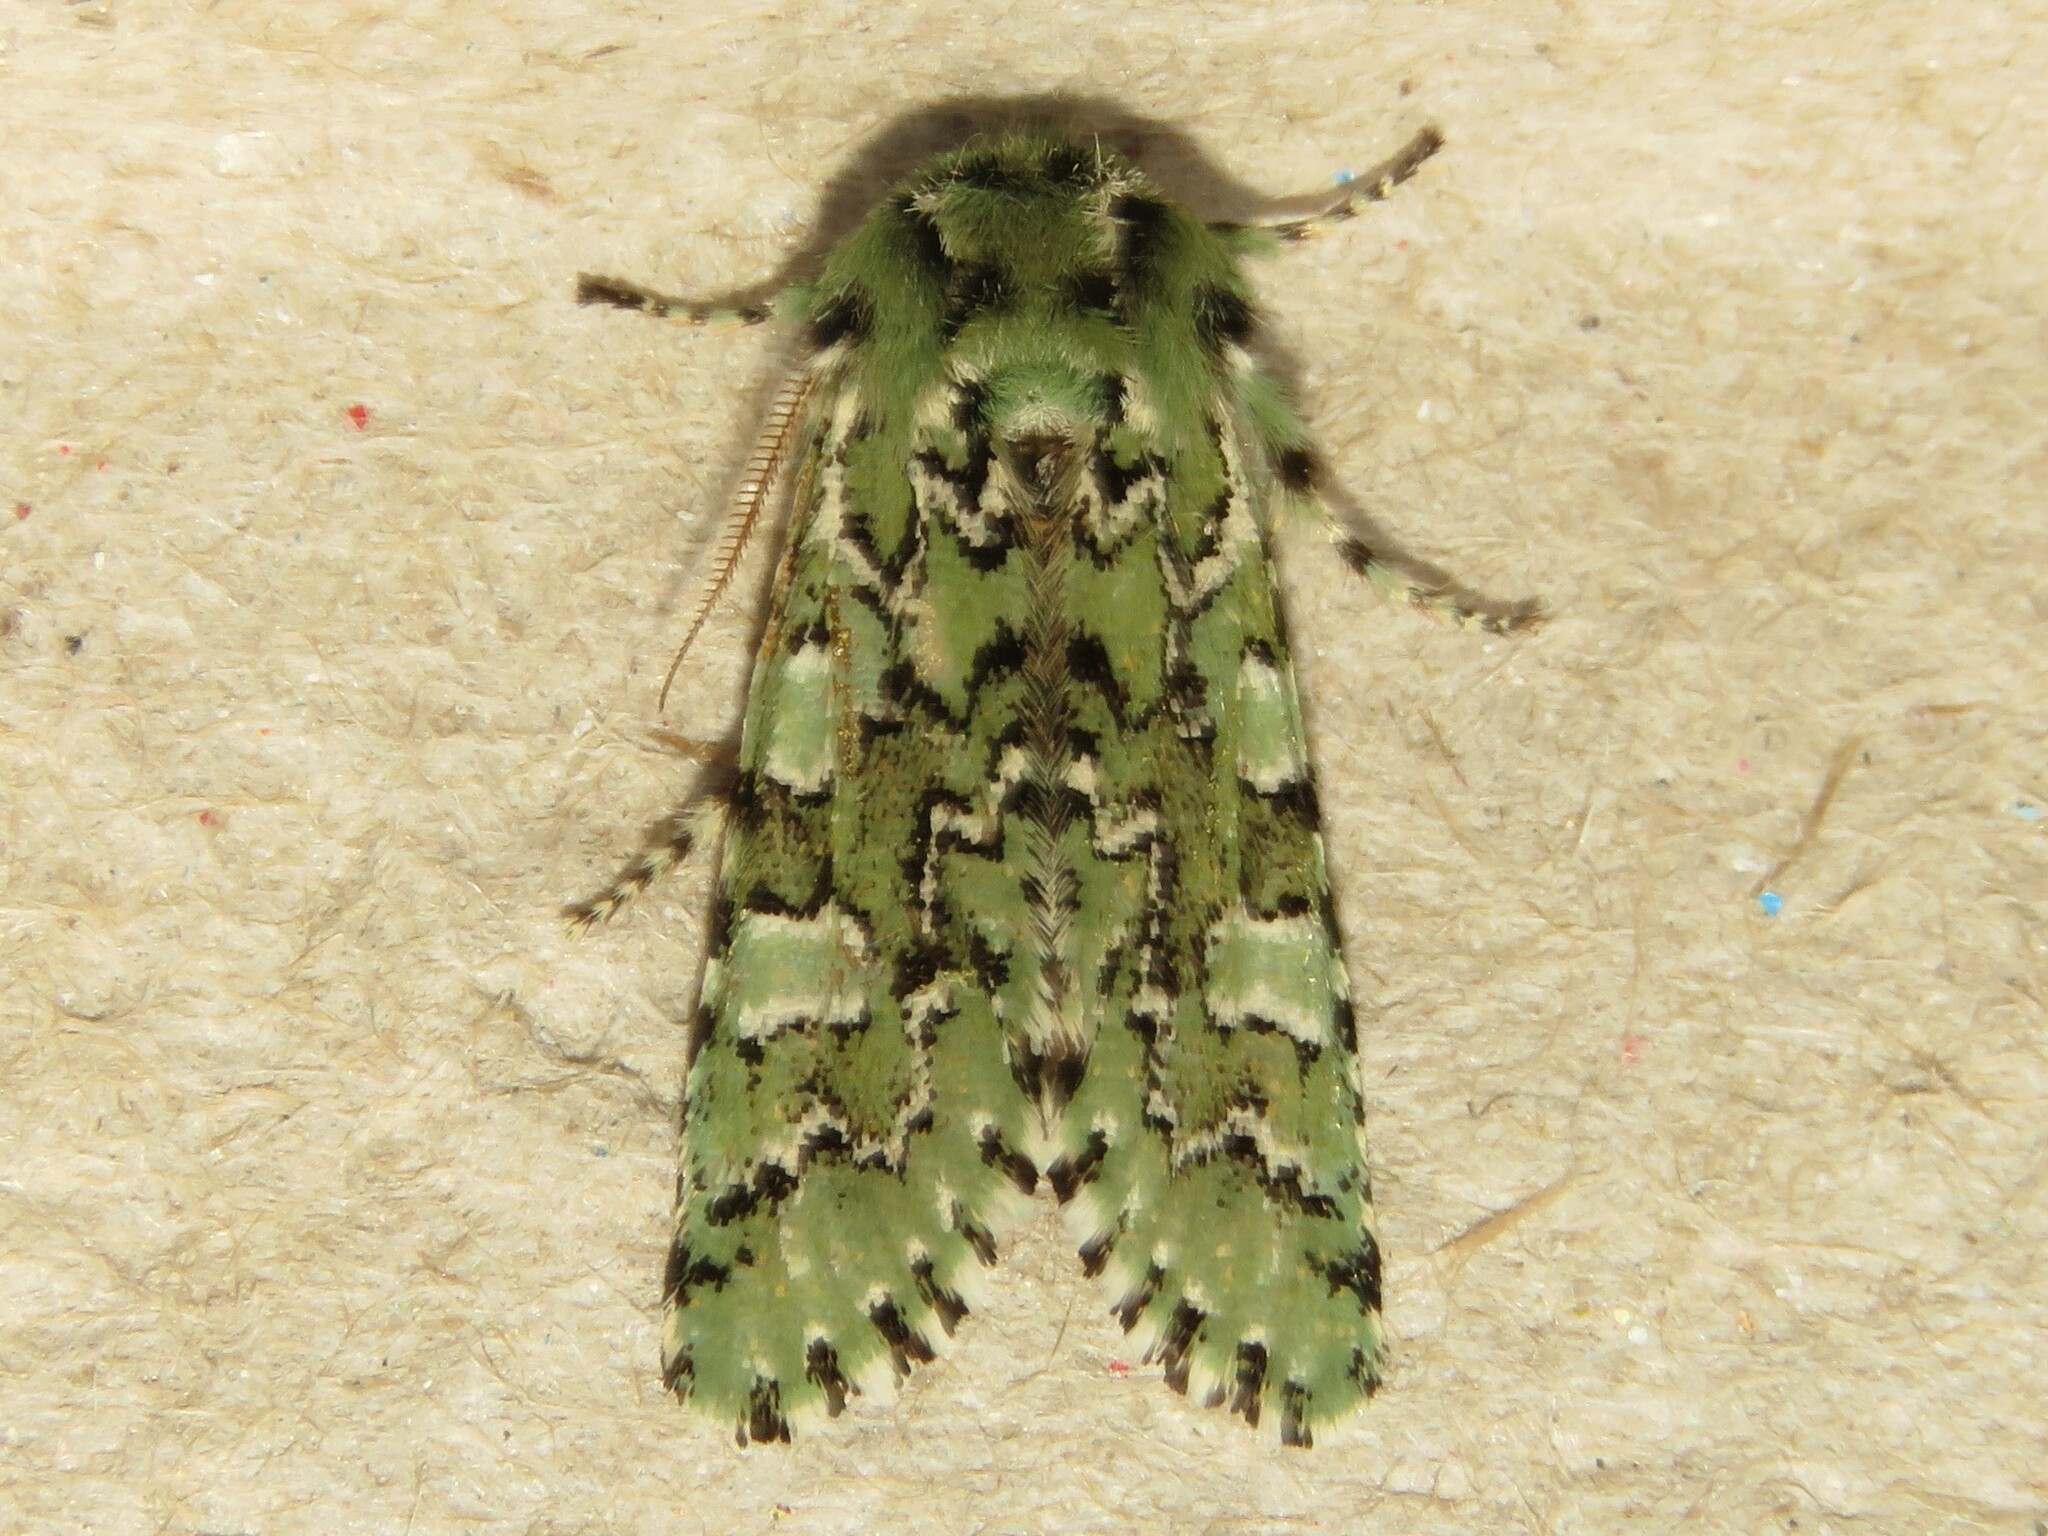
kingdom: Animalia
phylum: Arthropoda
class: Insecta
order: Lepidoptera
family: Noctuidae
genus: Feralia
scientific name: Feralia jocosa
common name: Joker
